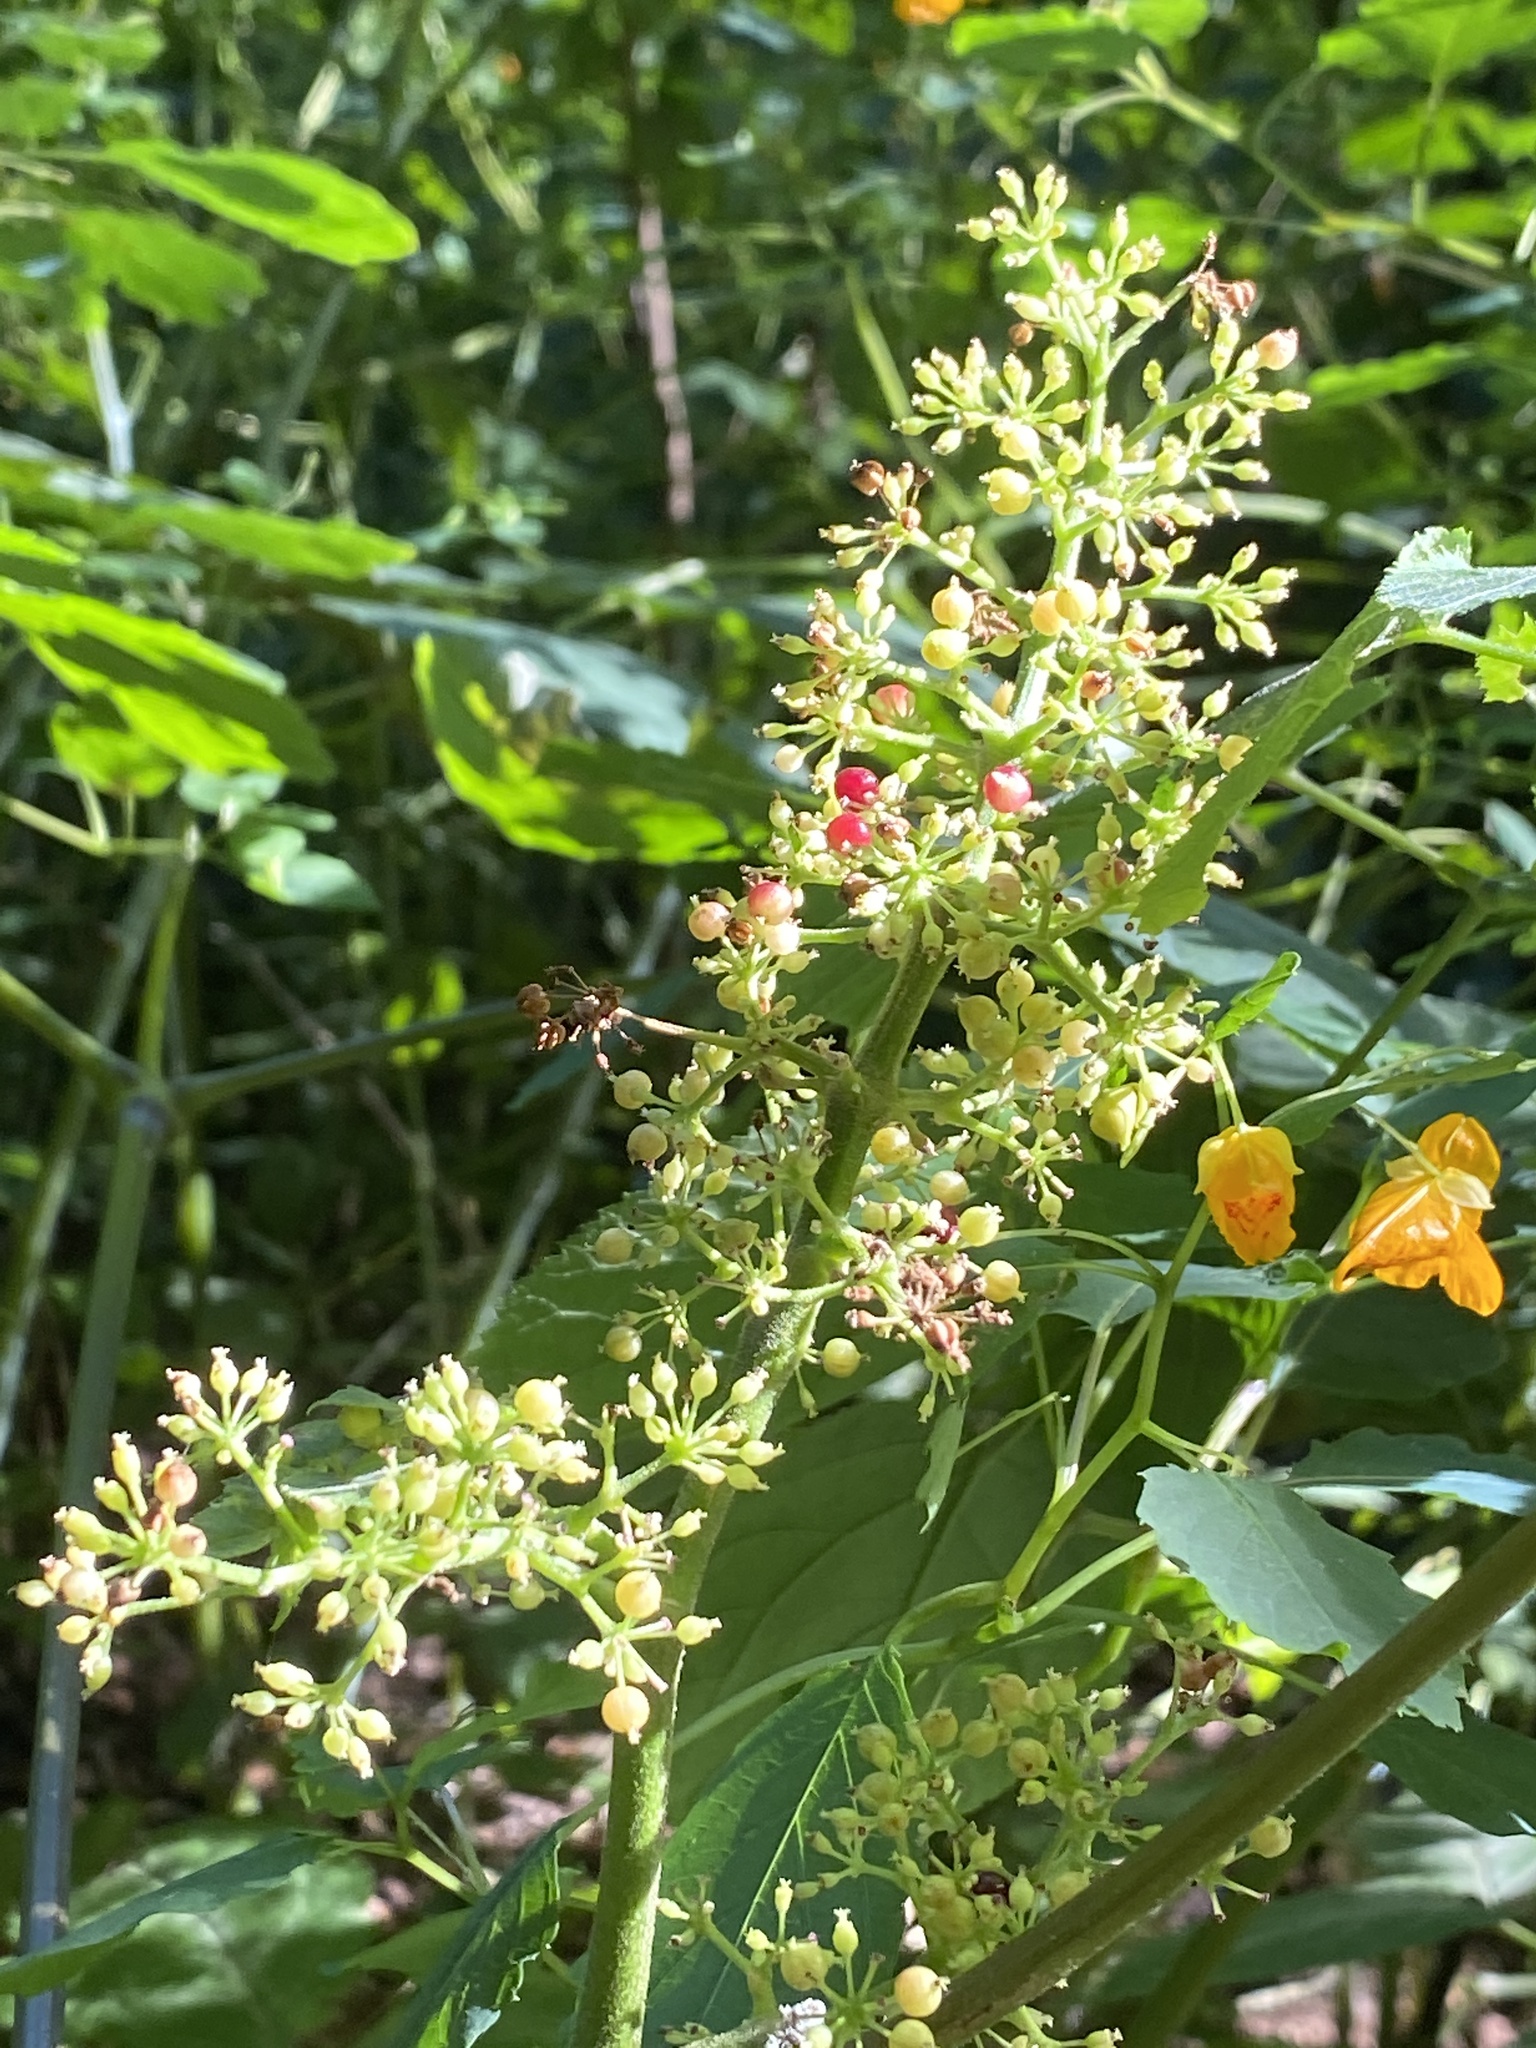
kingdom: Plantae
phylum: Tracheophyta
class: Magnoliopsida
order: Apiales
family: Araliaceae
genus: Aralia
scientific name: Aralia racemosa
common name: American-spikenard
